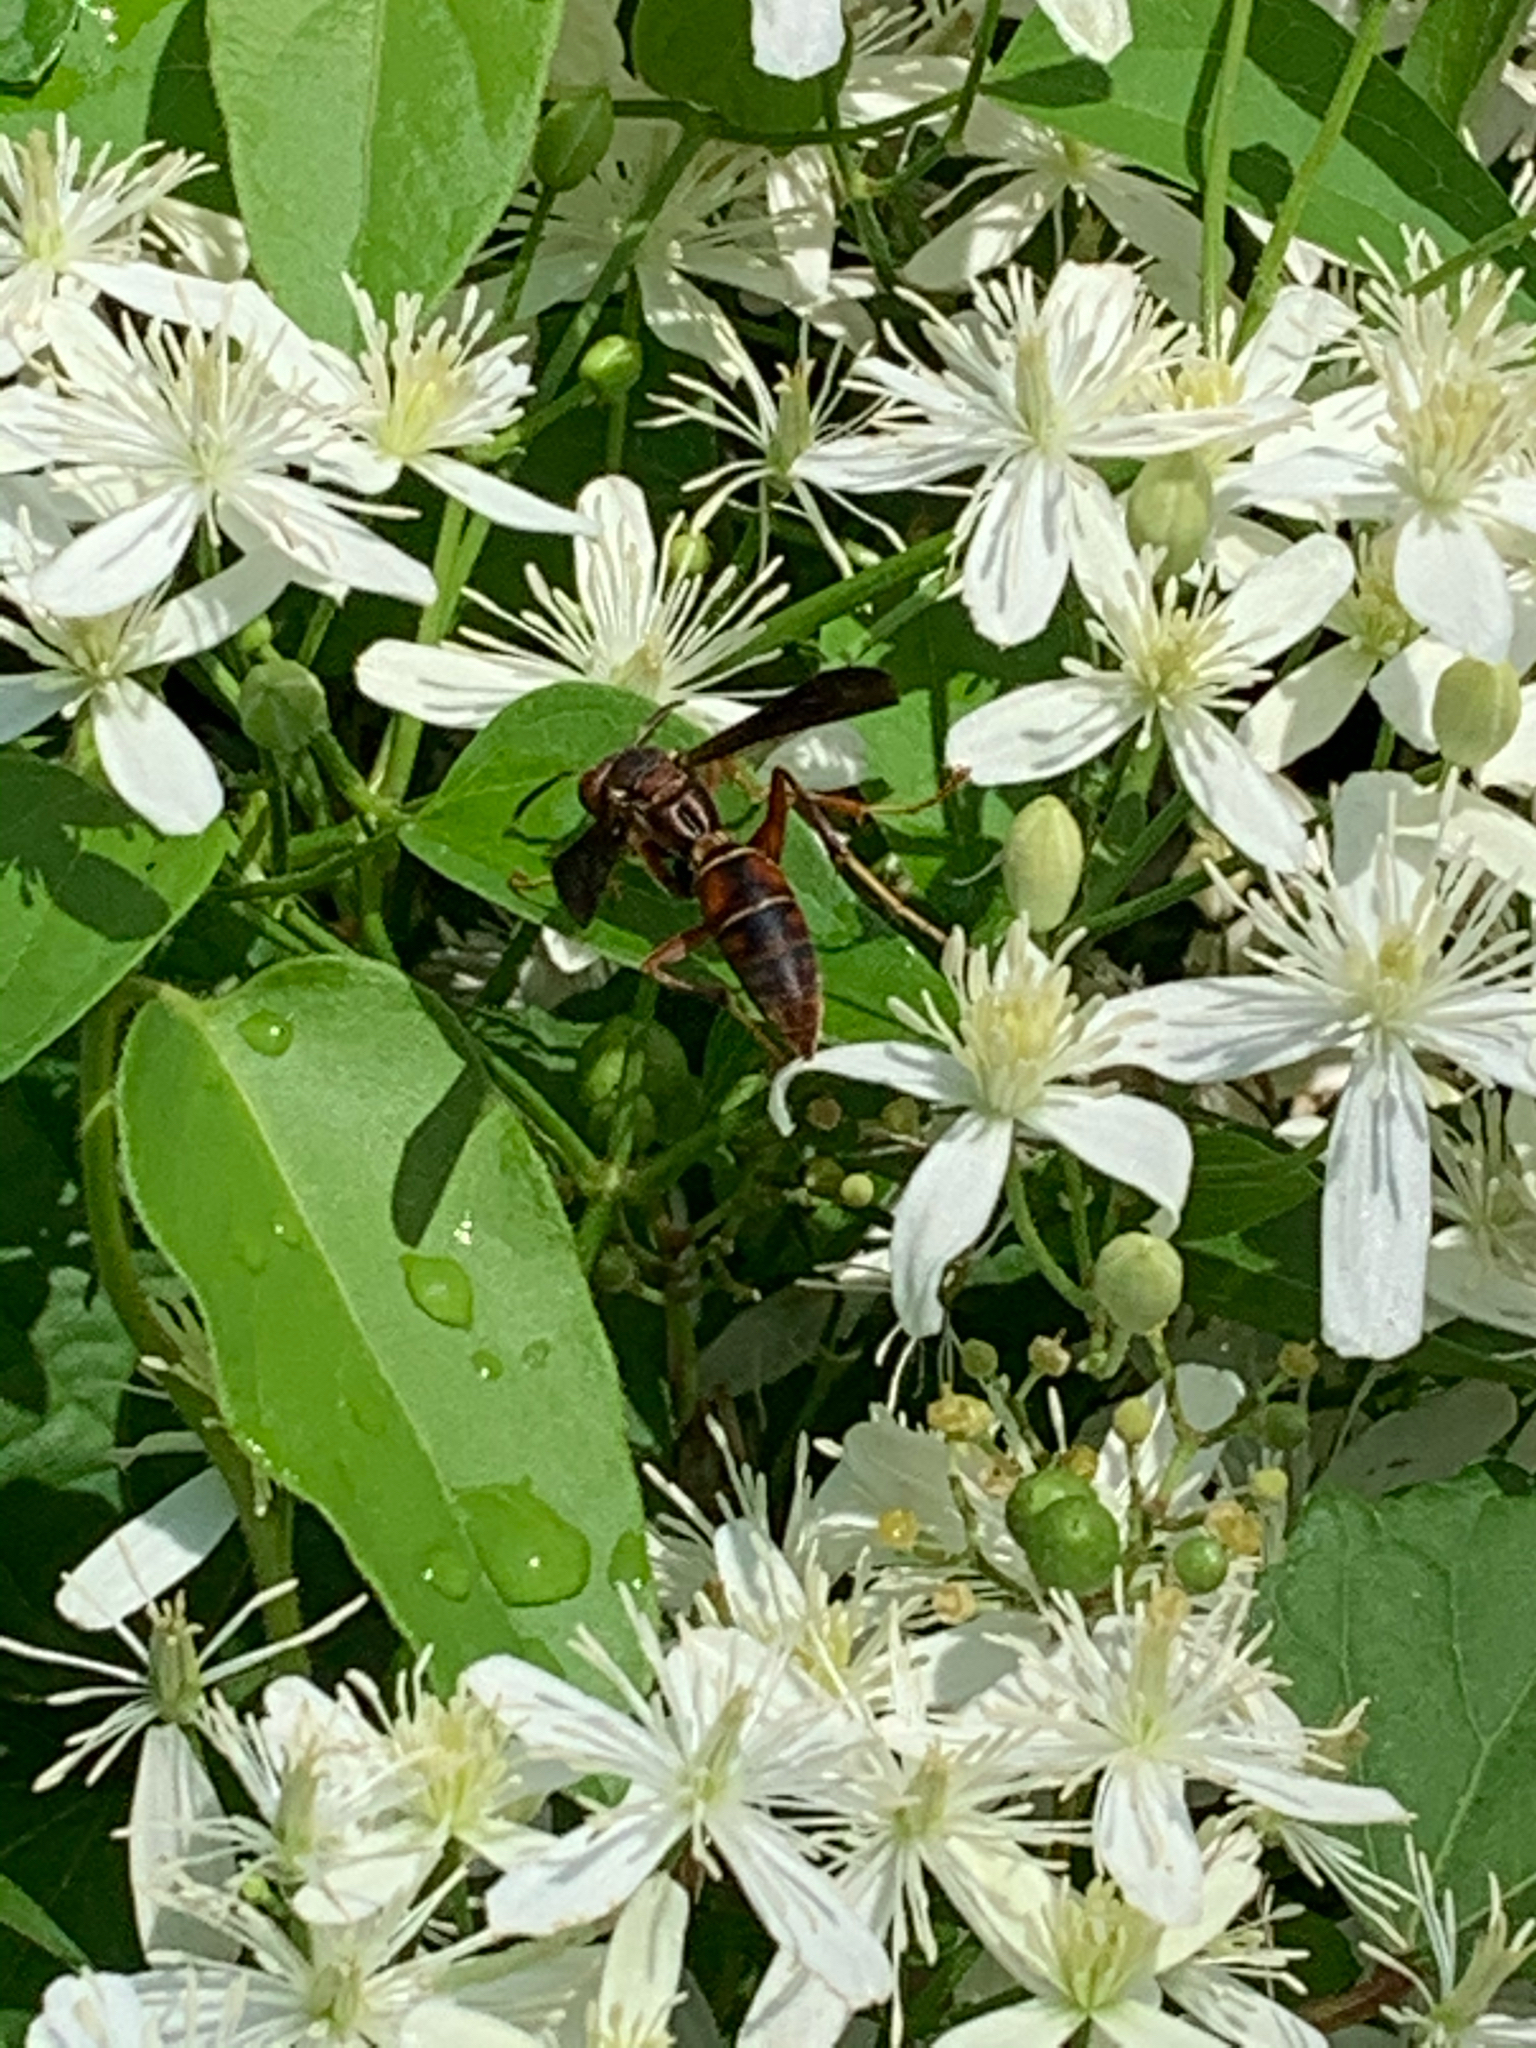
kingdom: Animalia
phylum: Arthropoda
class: Insecta
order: Hymenoptera
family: Eumenidae
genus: Polistes
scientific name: Polistes fuscatus
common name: Dark paper wasp
